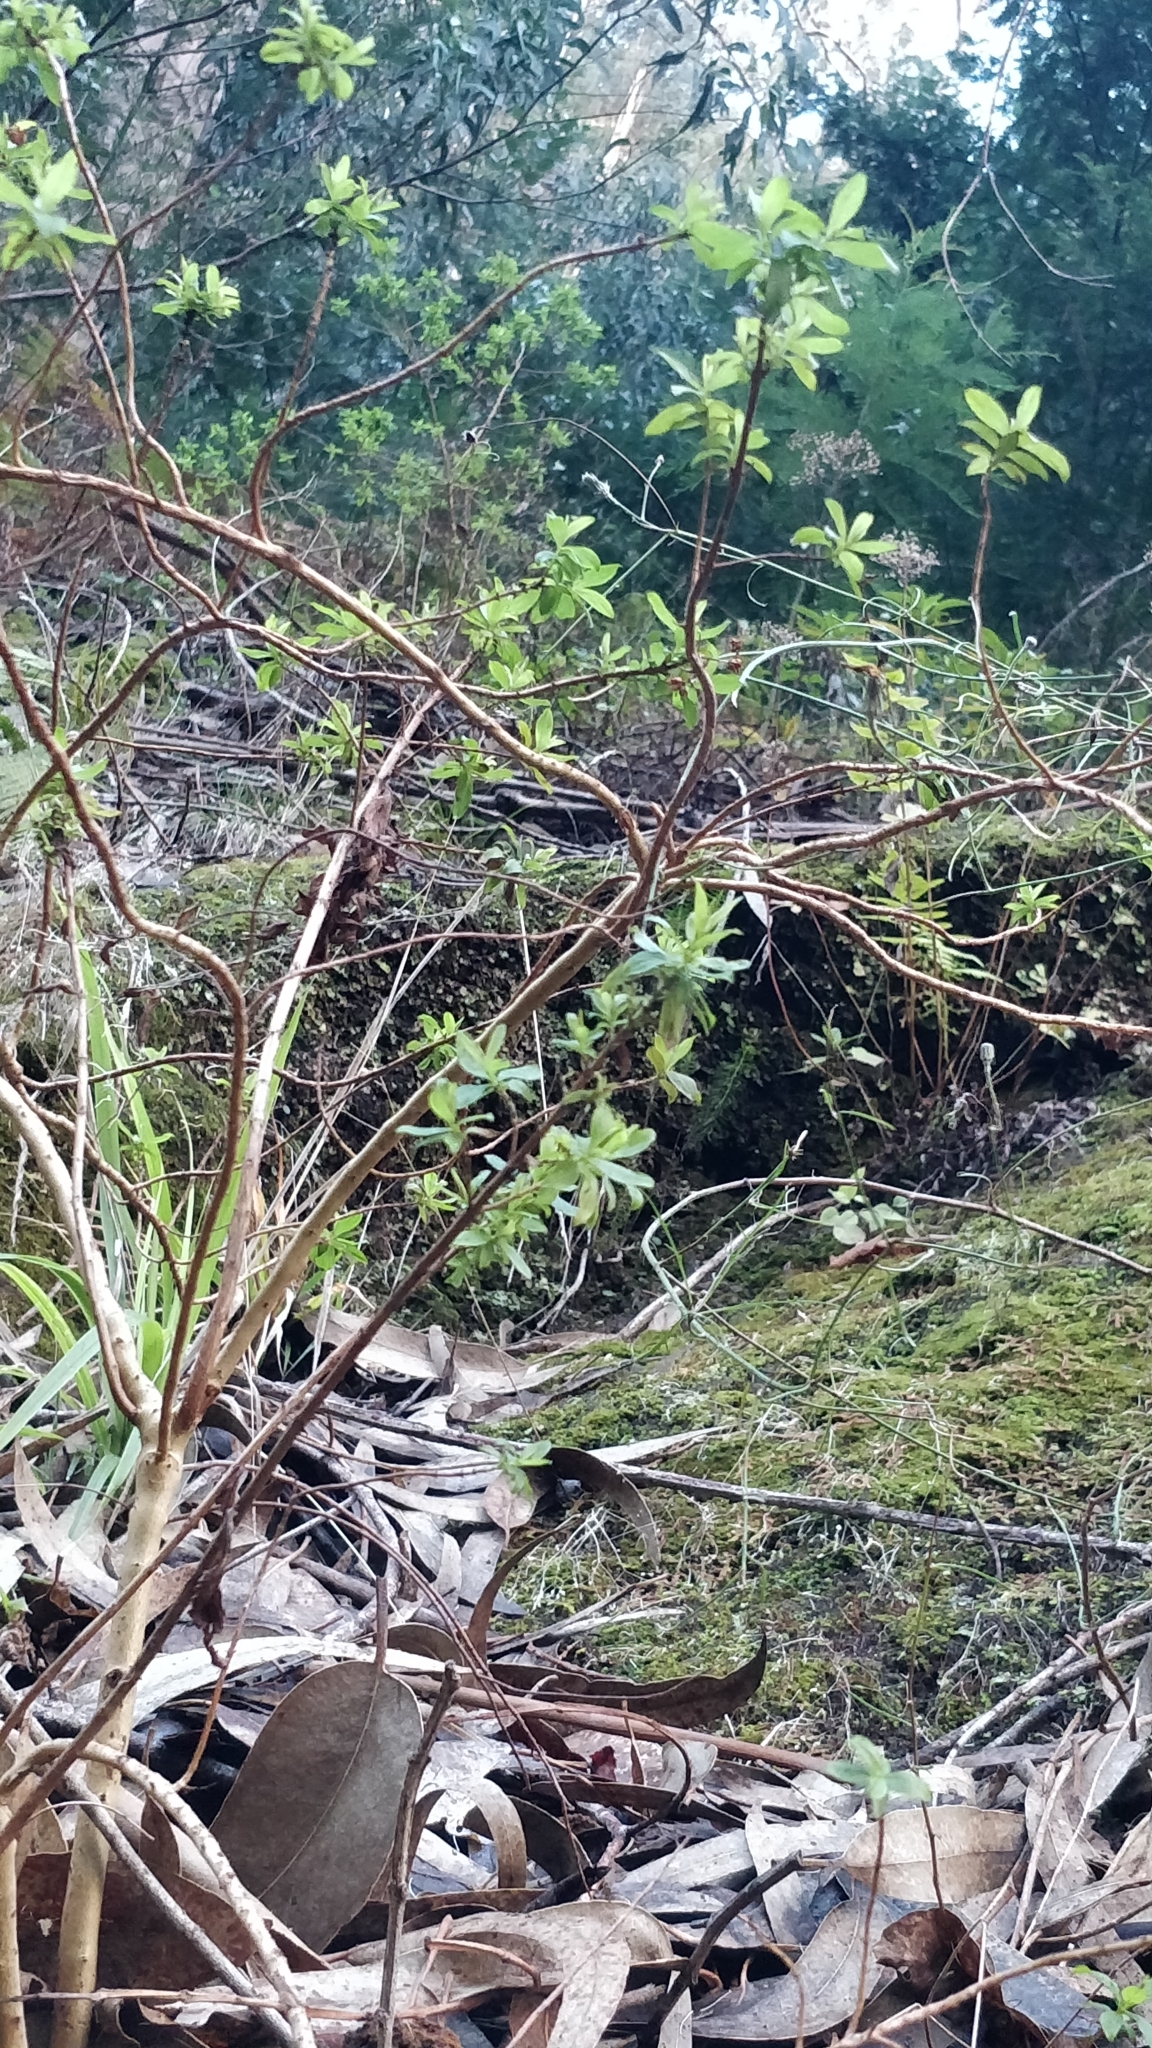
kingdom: Plantae
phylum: Tracheophyta
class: Magnoliopsida
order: Malpighiales
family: Hypericaceae
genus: Hypericum
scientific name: Hypericum glandulosum
